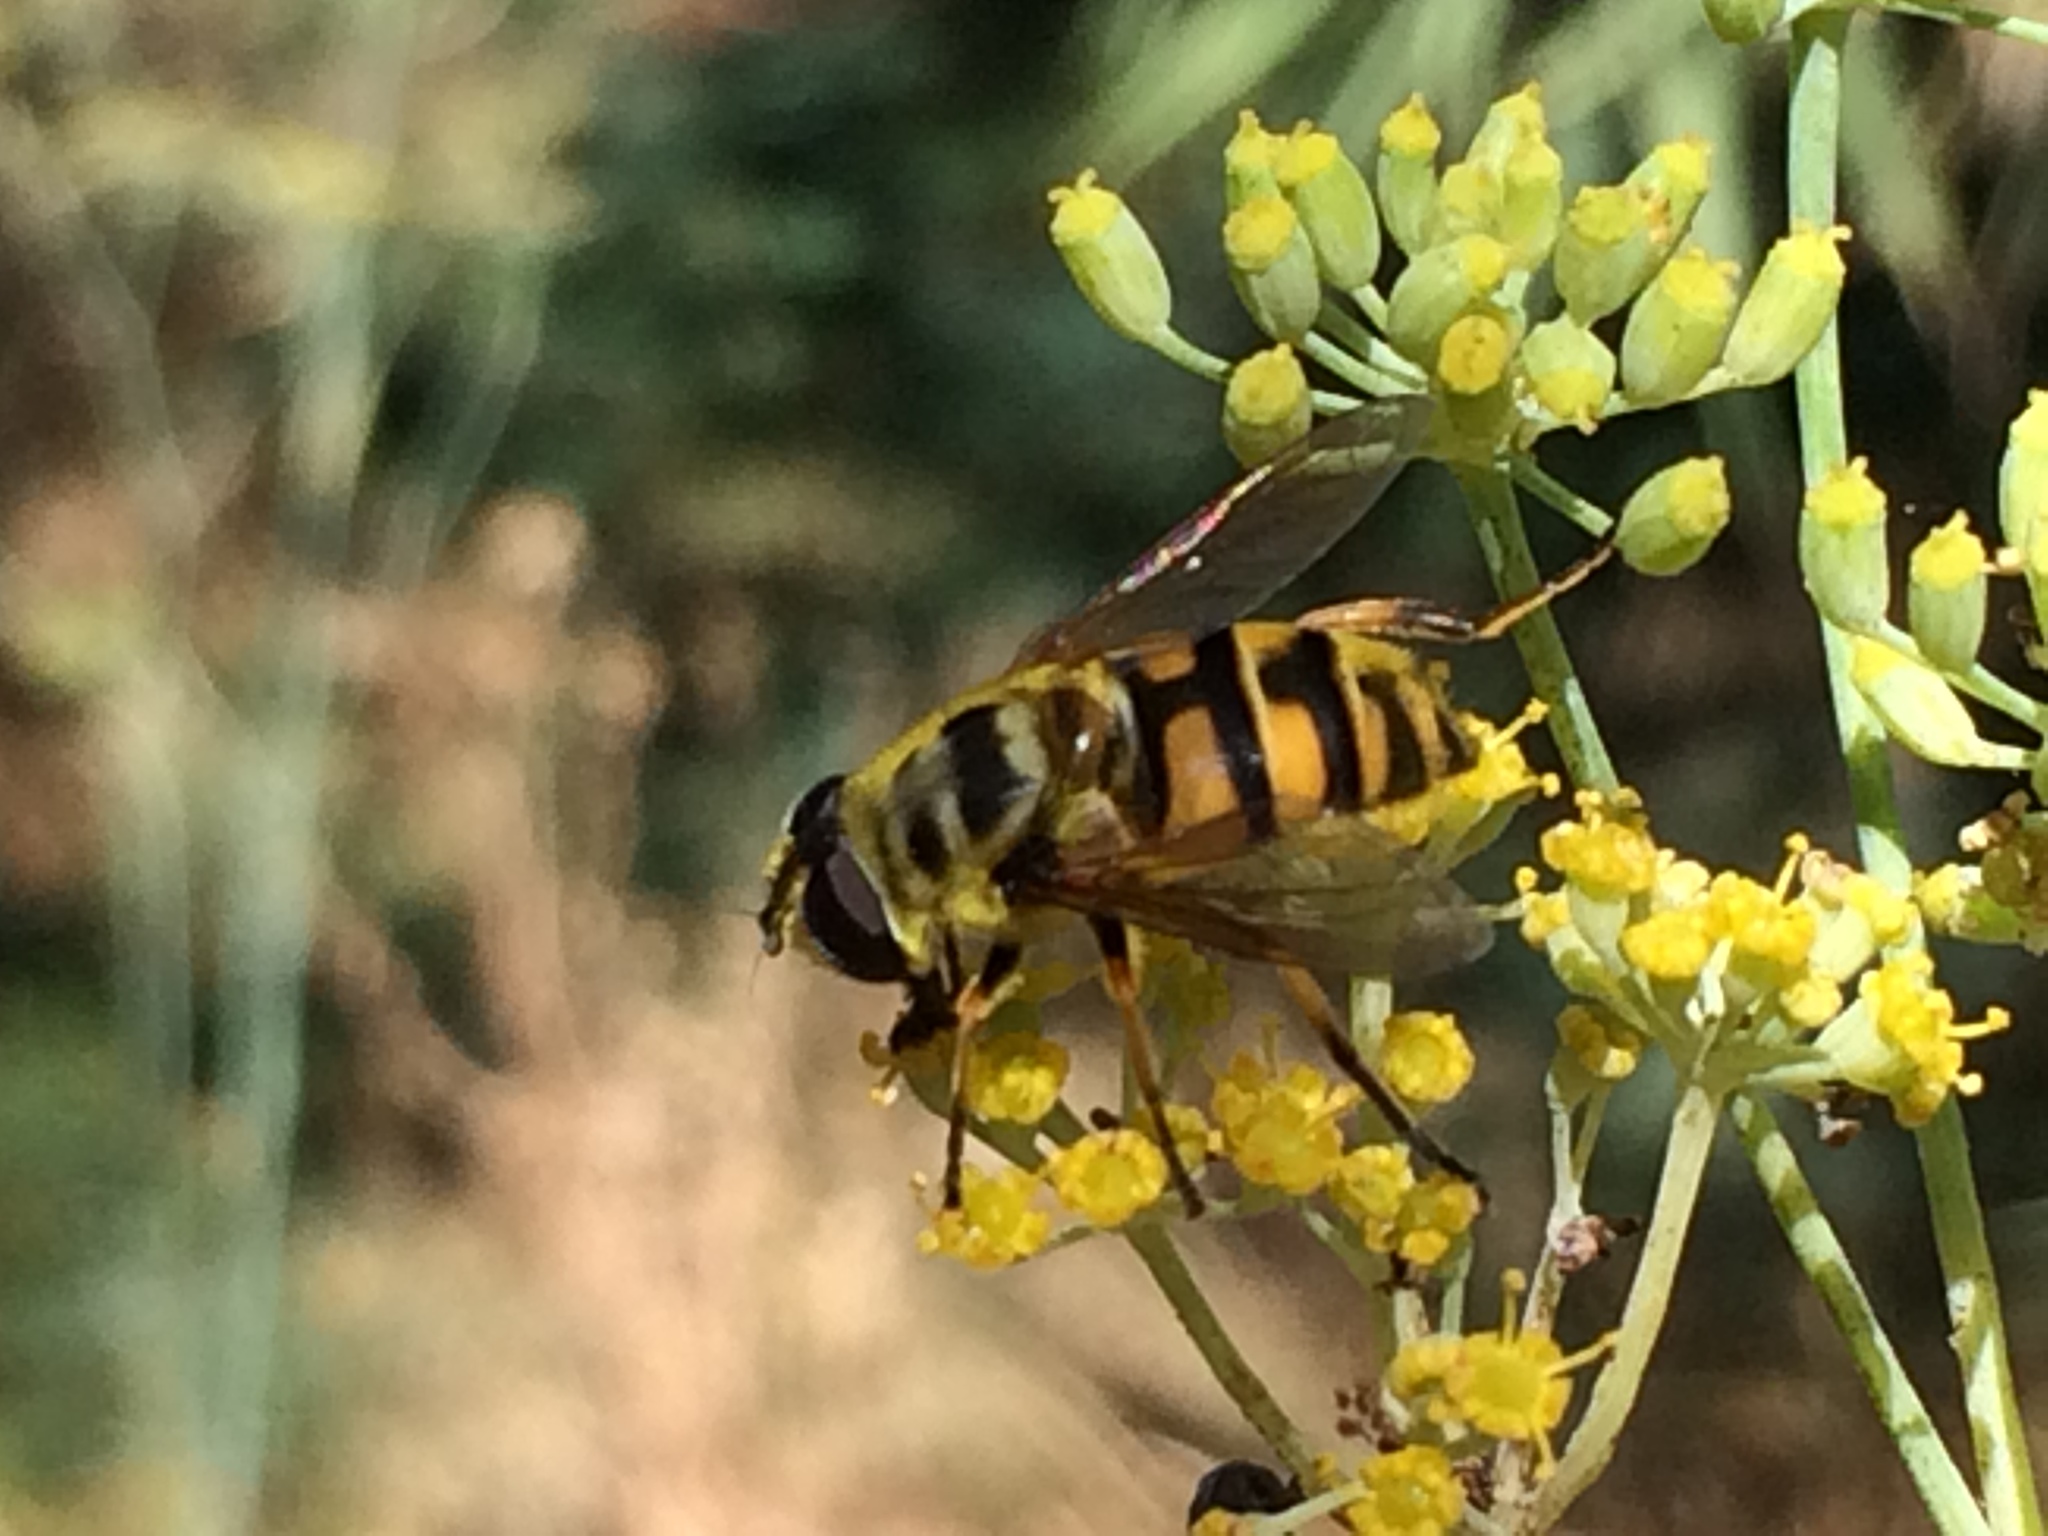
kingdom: Animalia
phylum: Arthropoda
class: Insecta
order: Diptera
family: Syrphidae
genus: Myathropa
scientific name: Myathropa florea
